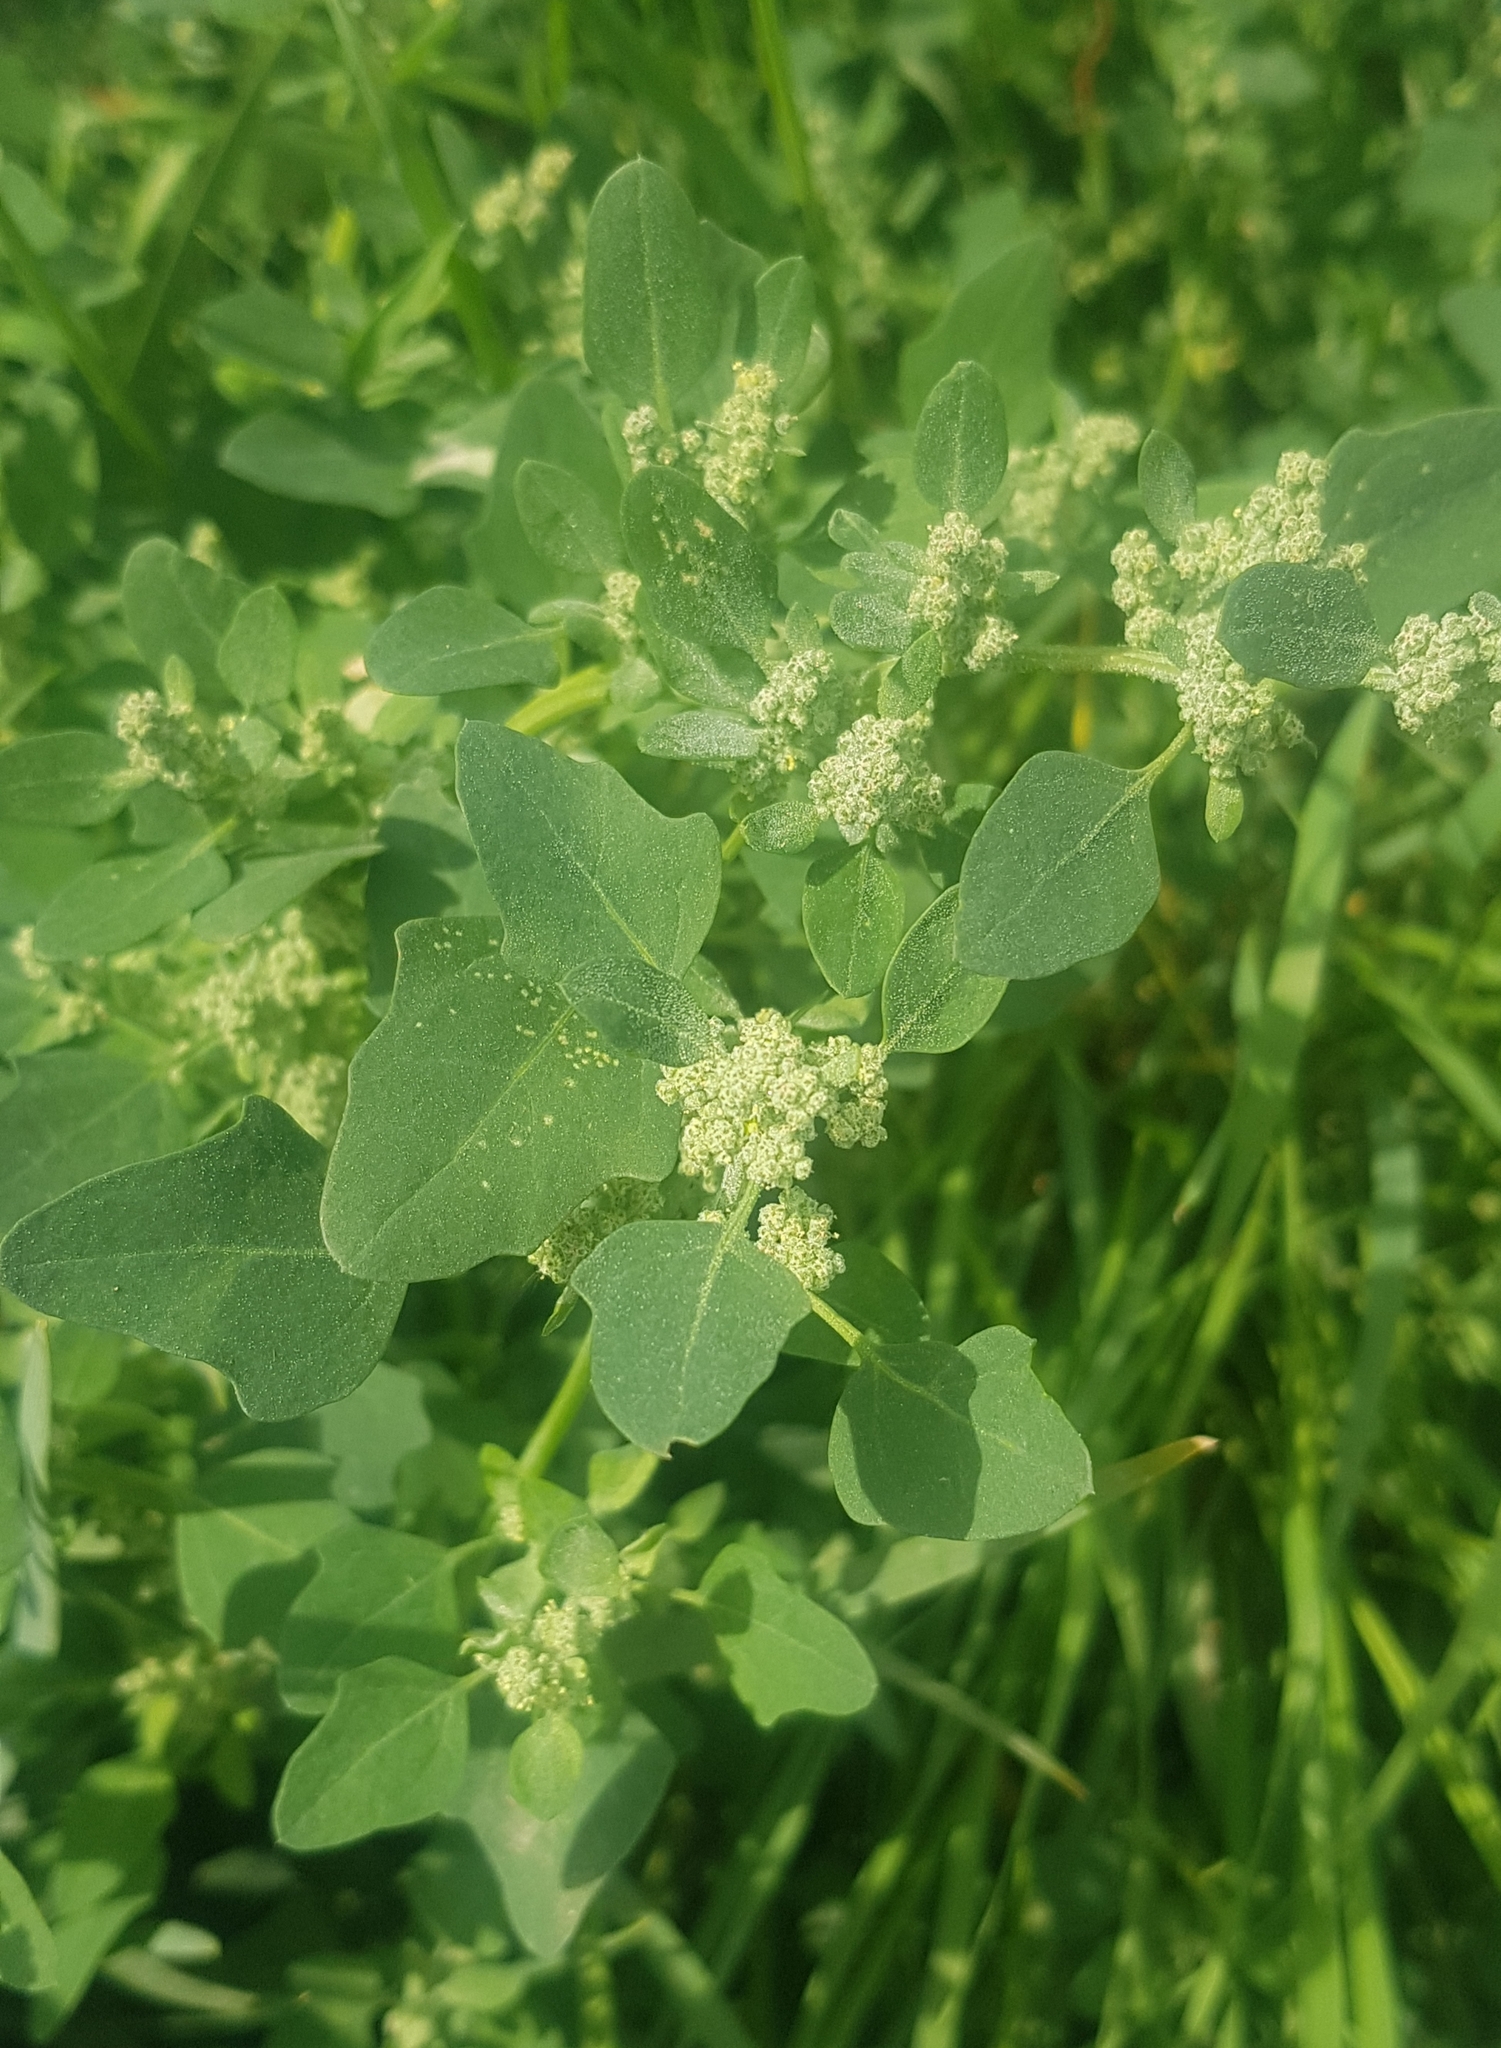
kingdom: Plantae
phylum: Tracheophyta
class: Magnoliopsida
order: Caryophyllales
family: Amaranthaceae
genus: Chenopodium
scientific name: Chenopodium album
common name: Fat-hen
